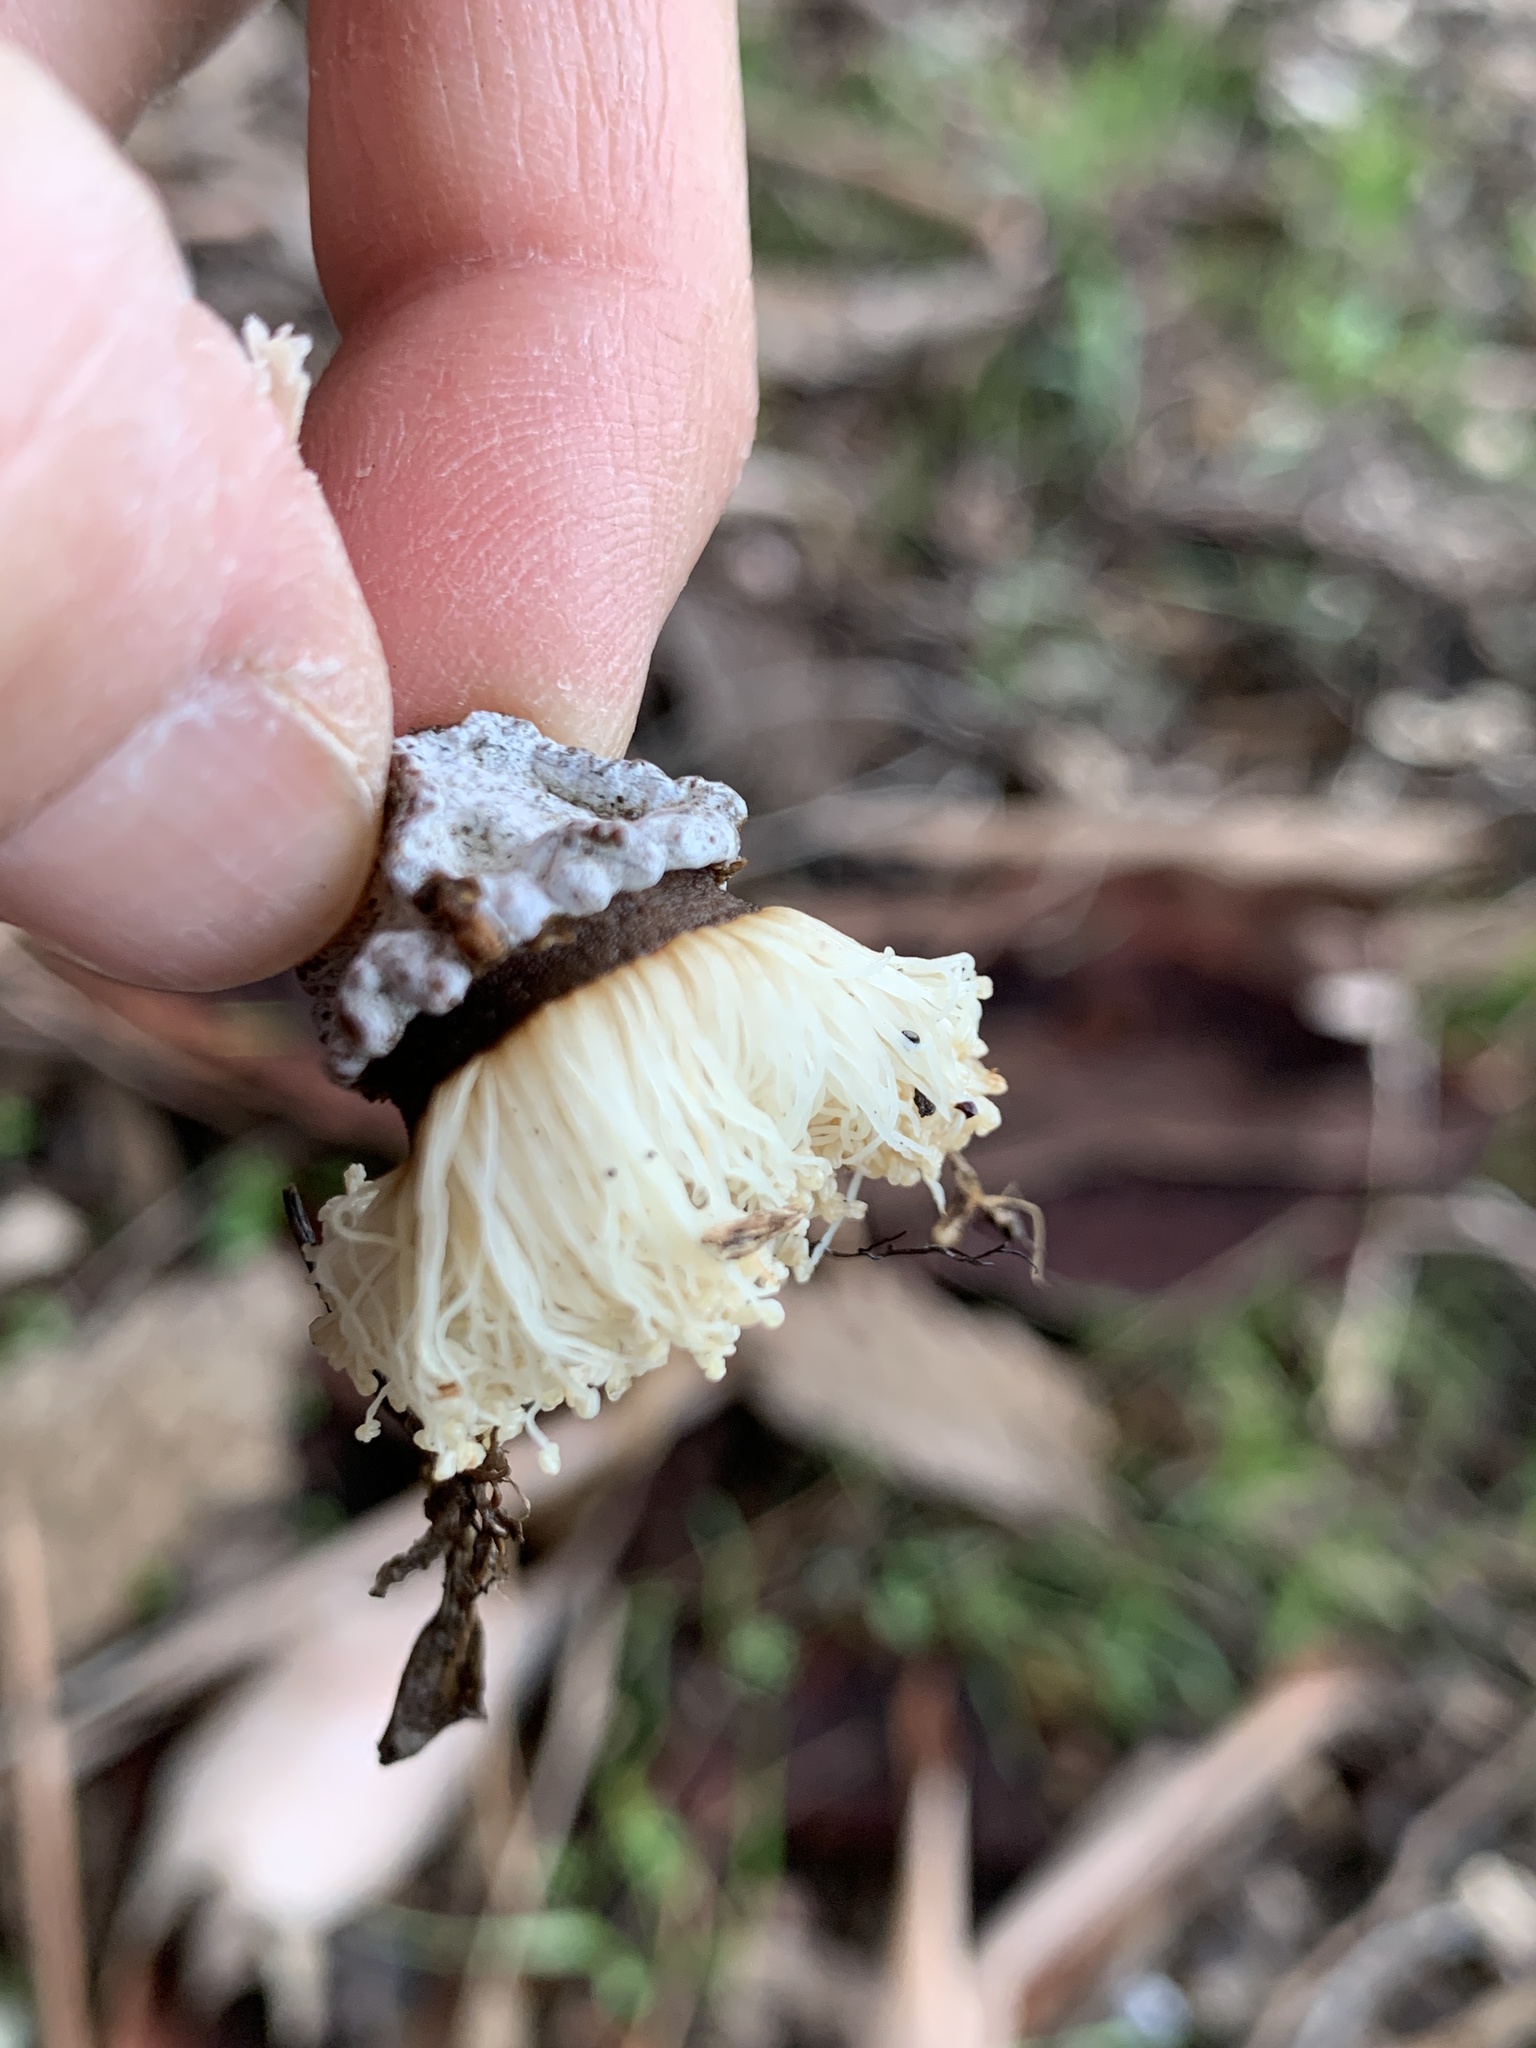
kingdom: Plantae
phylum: Tracheophyta
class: Magnoliopsida
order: Myrtales
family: Myrtaceae
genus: Eucalyptus
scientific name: Eucalyptus globulus
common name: Southern blue-gum
